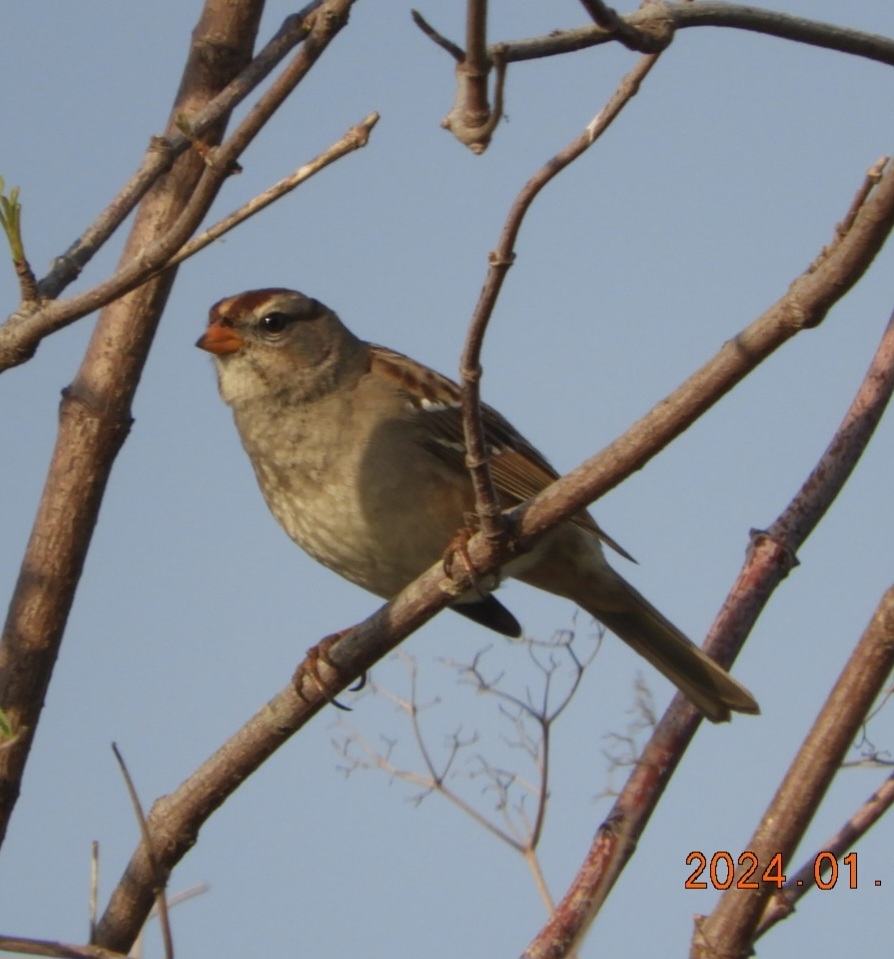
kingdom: Animalia
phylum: Chordata
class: Aves
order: Passeriformes
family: Passerellidae
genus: Zonotrichia
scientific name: Zonotrichia leucophrys
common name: White-crowned sparrow
